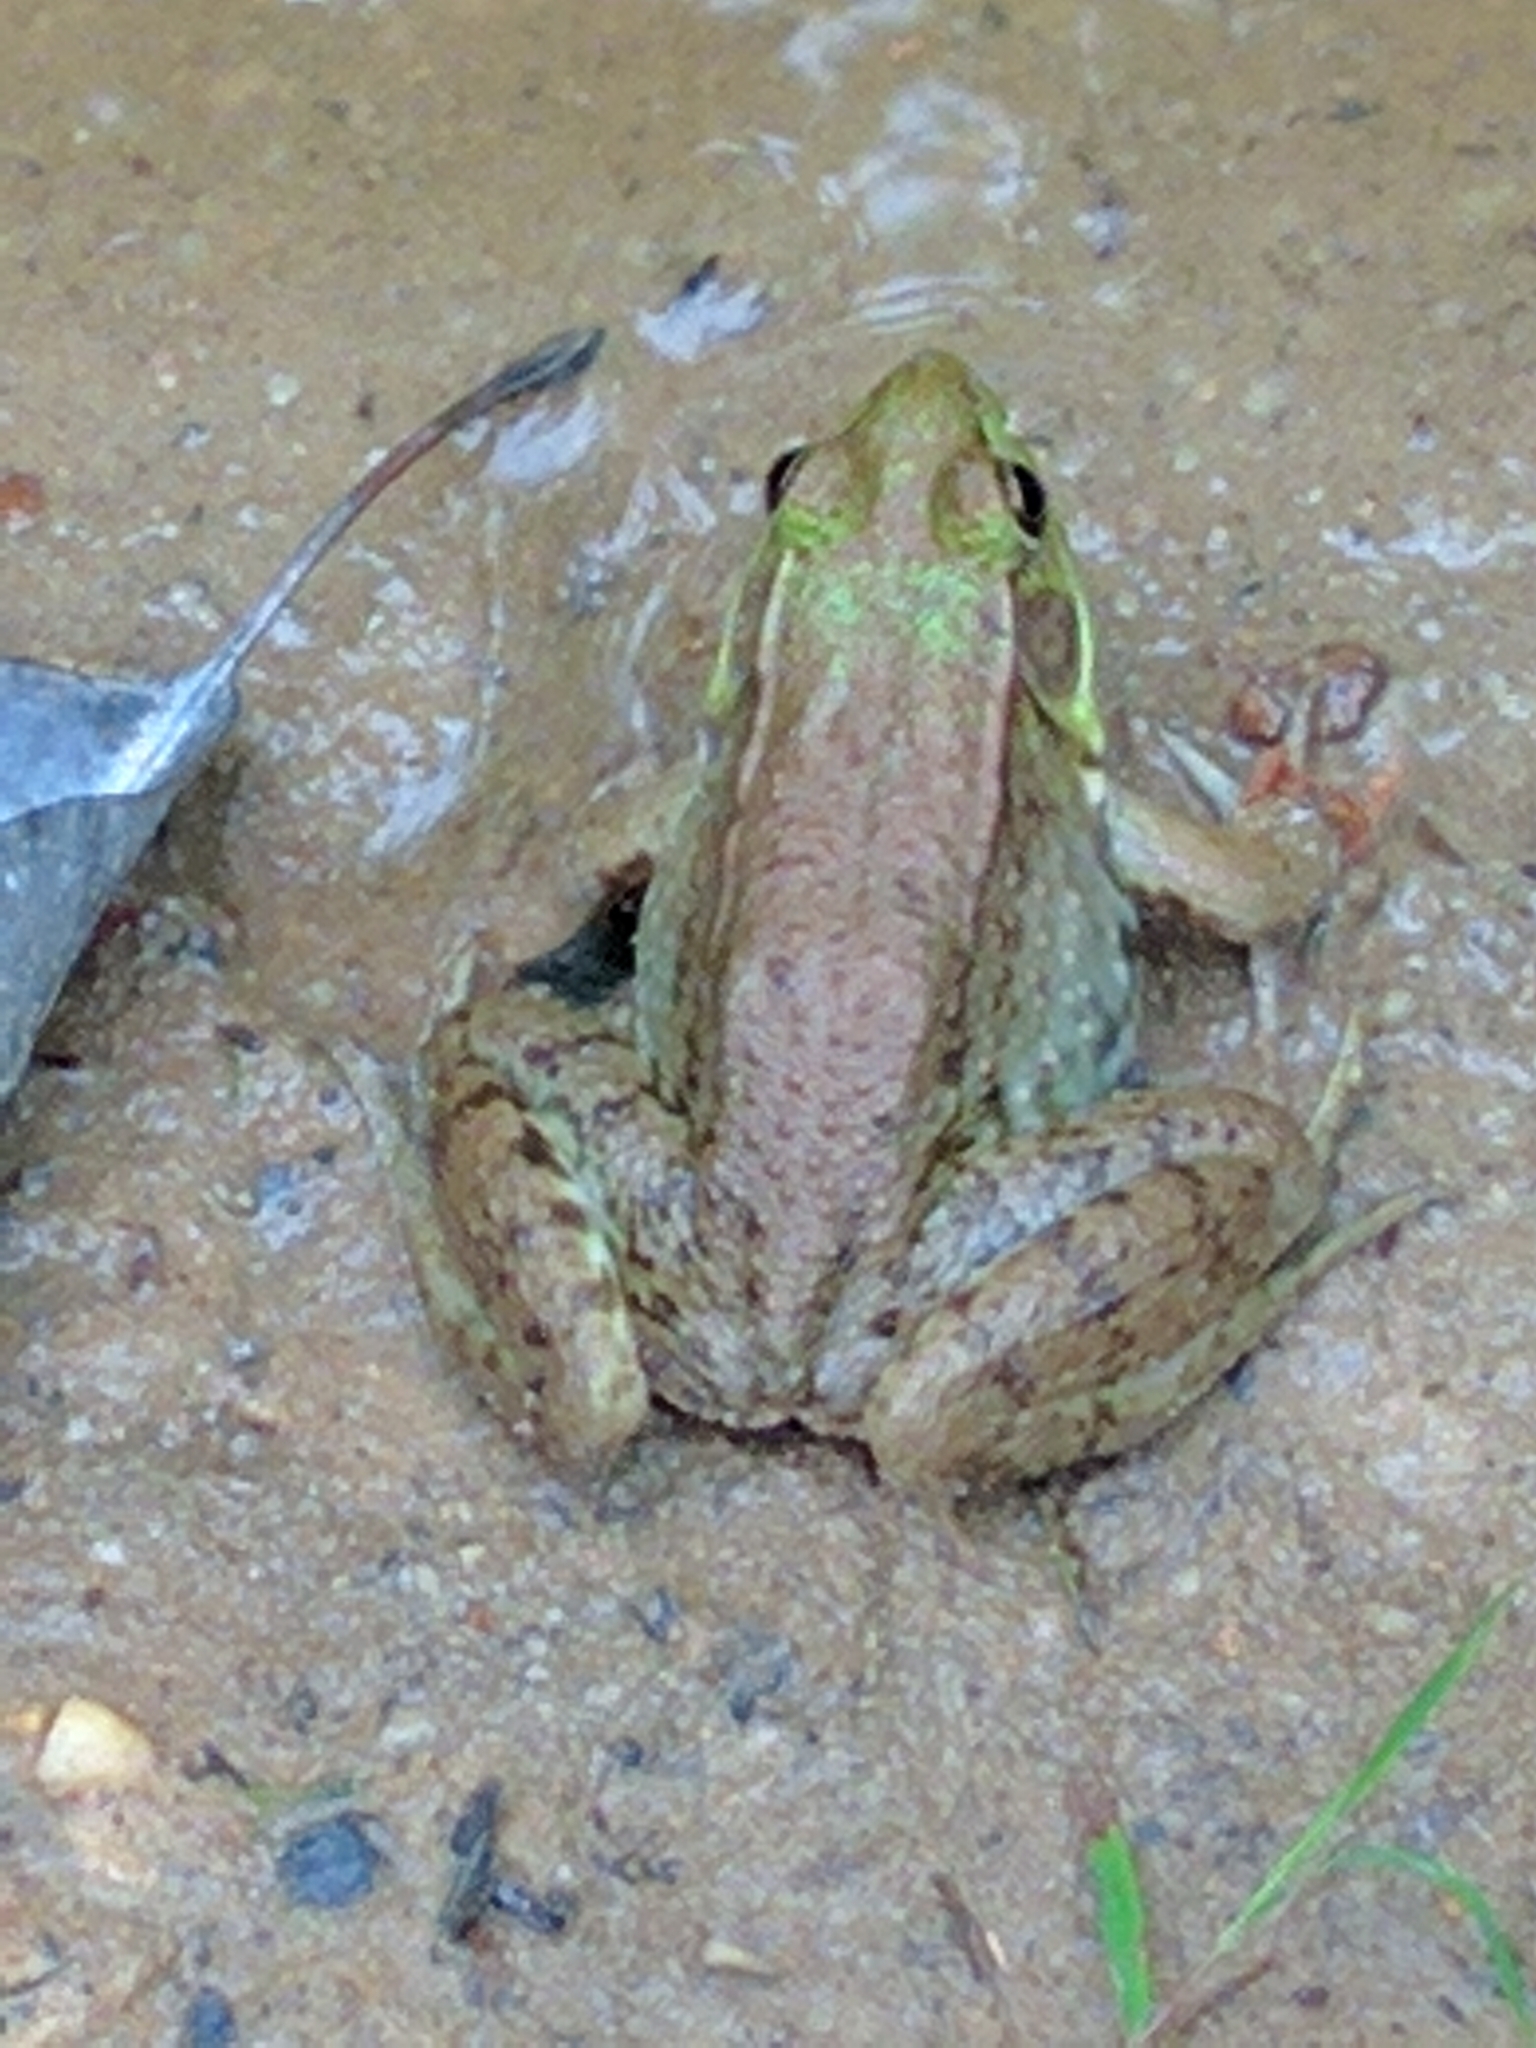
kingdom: Animalia
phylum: Chordata
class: Amphibia
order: Anura
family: Ranidae
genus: Lithobates
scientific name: Lithobates clamitans
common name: Green frog
